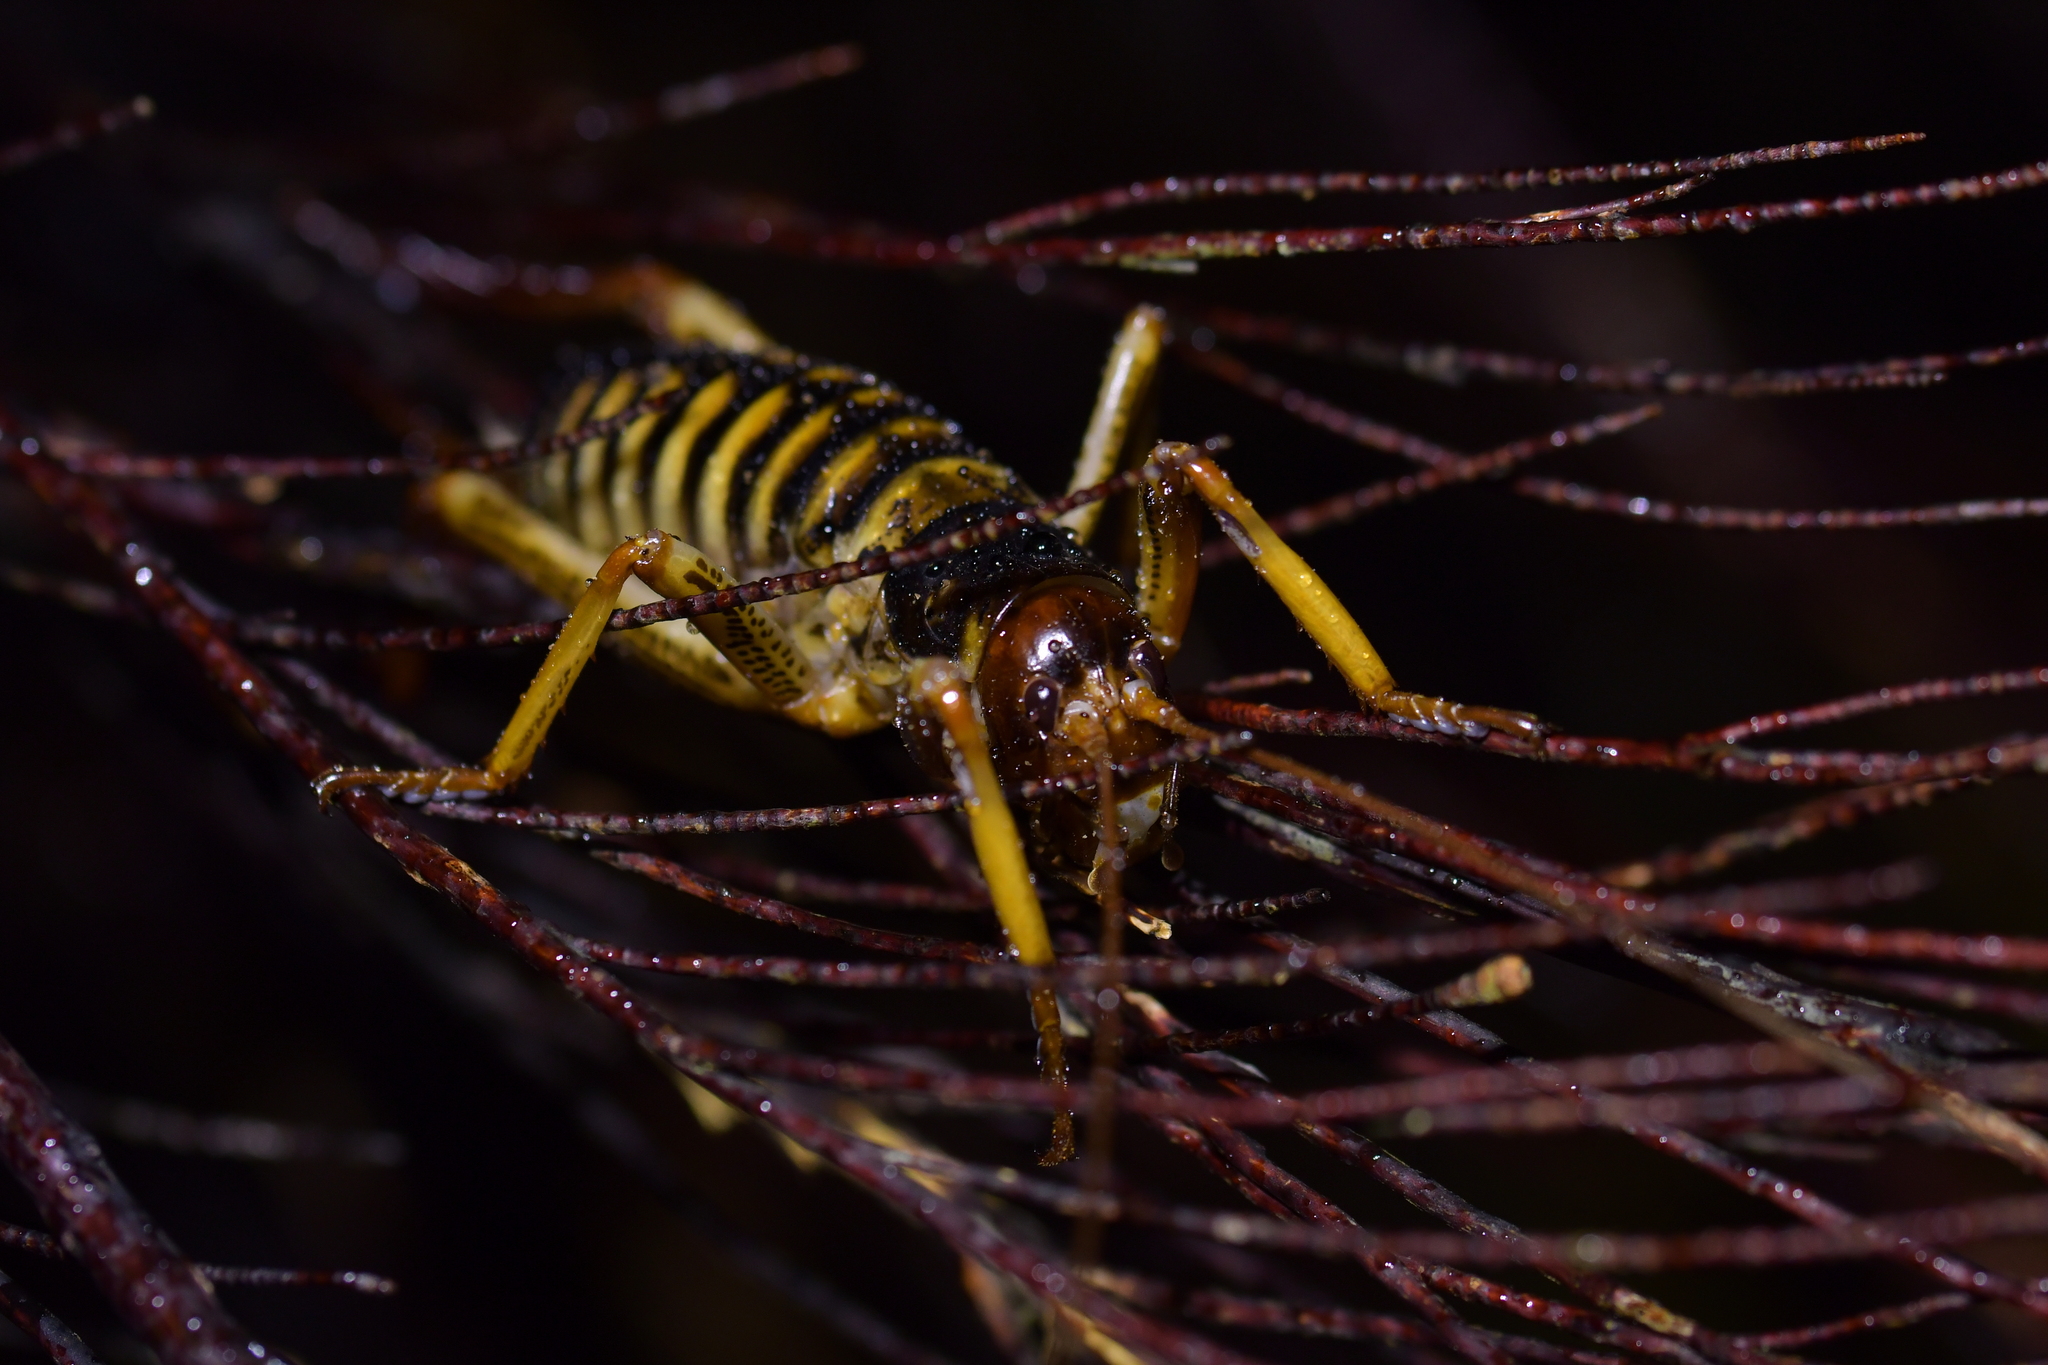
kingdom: Animalia
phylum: Arthropoda
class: Insecta
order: Orthoptera
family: Anostostomatidae
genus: Hemideina
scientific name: Hemideina crassidens
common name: Wellington tree weta
